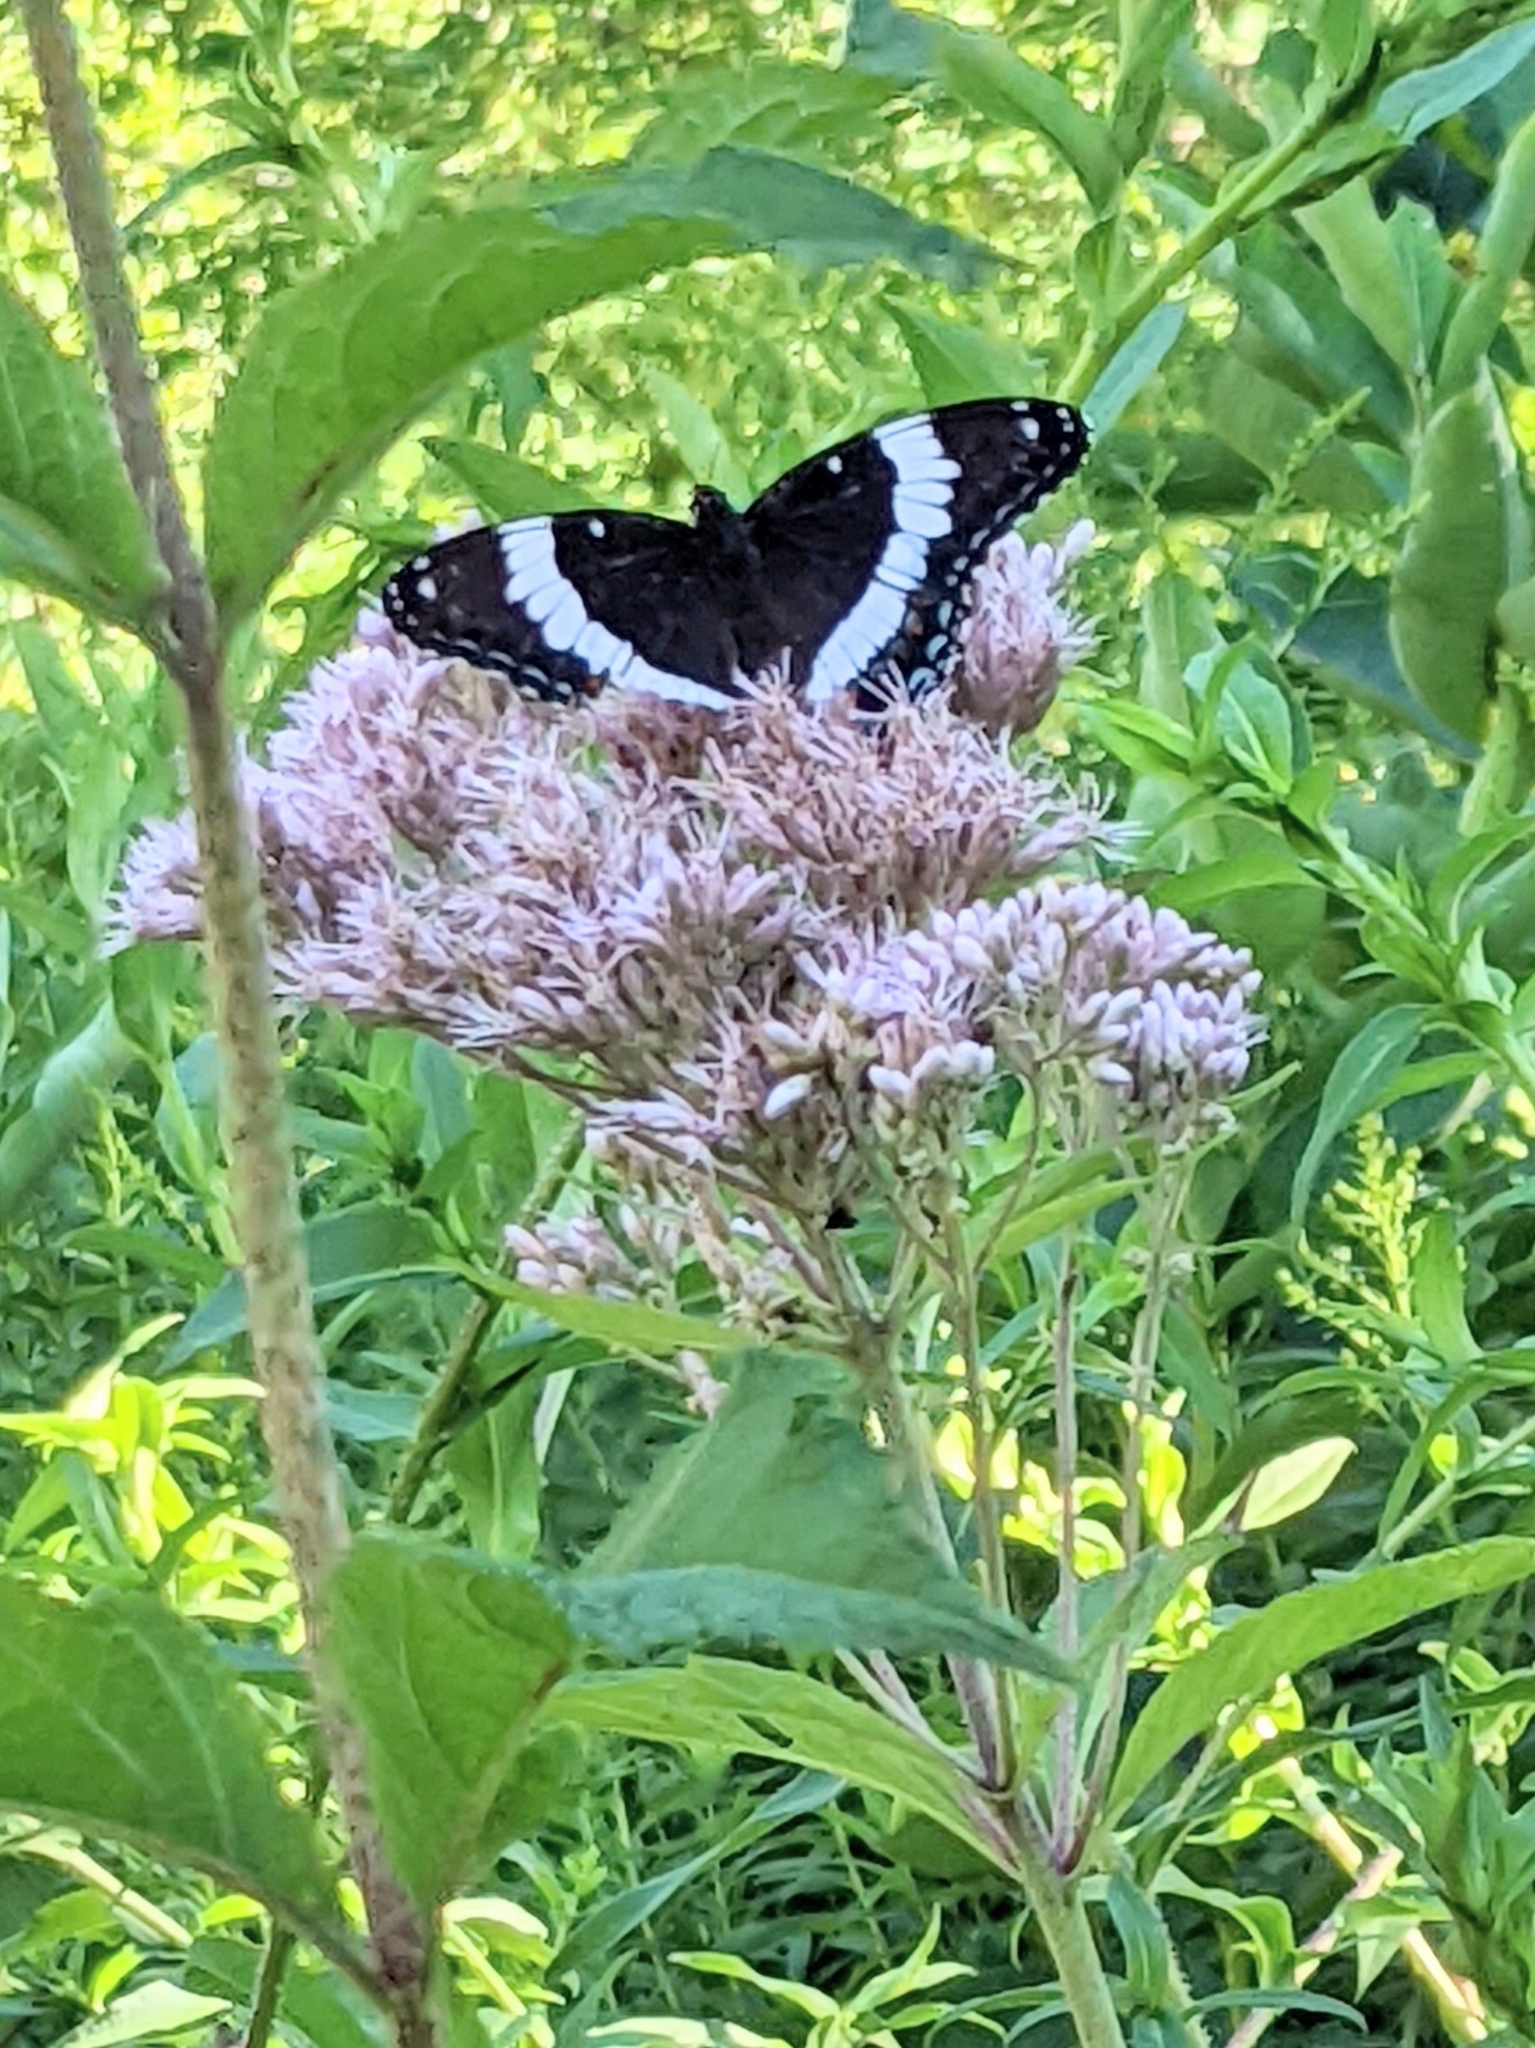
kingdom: Animalia
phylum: Arthropoda
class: Insecta
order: Lepidoptera
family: Nymphalidae
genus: Limenitis
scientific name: Limenitis arthemis
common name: Red-spotted admiral
